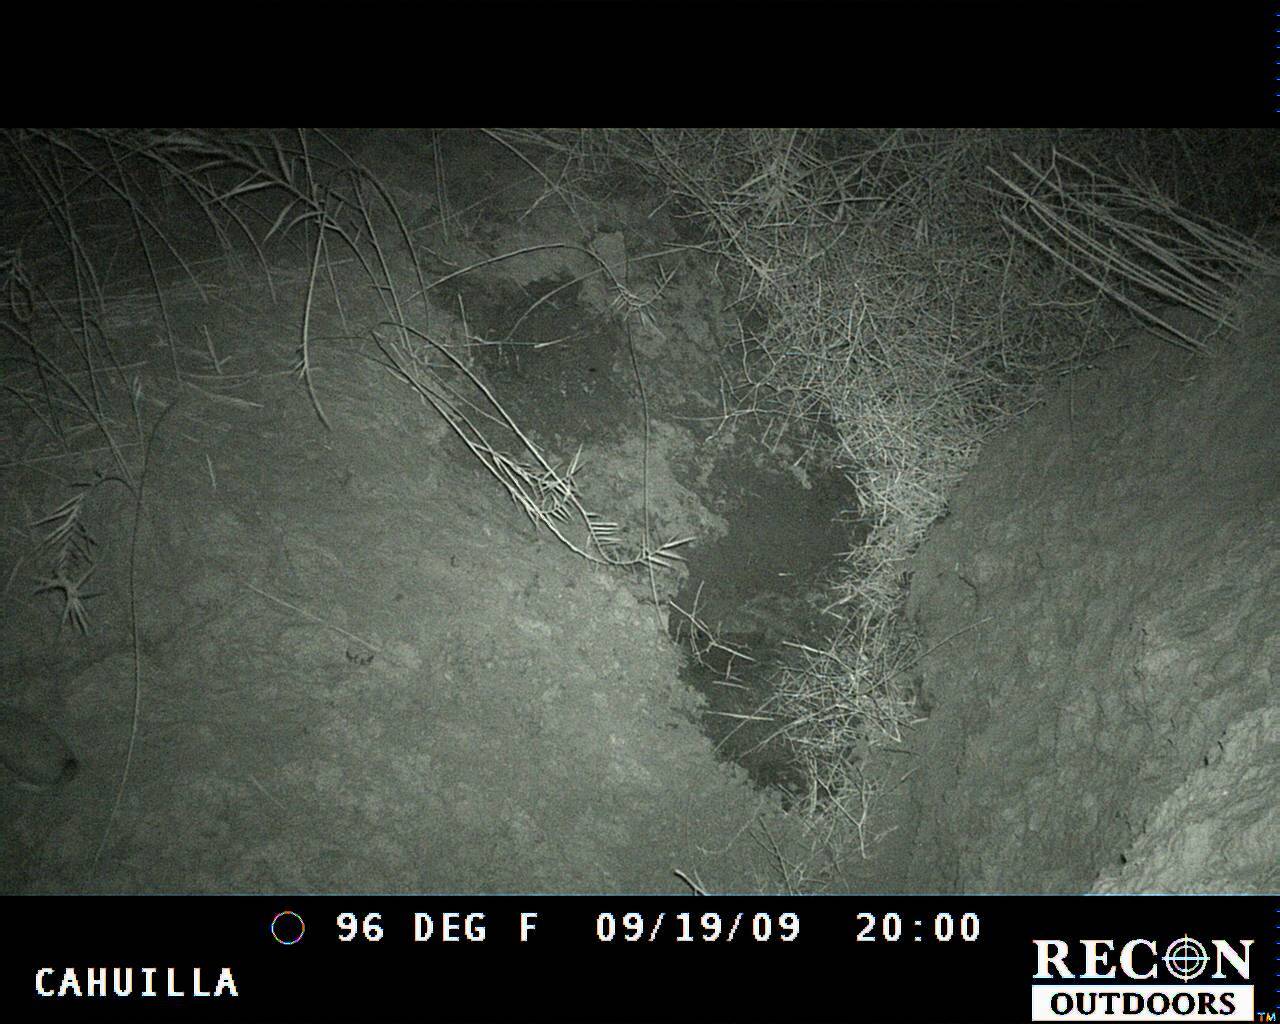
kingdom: Animalia
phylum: Chordata
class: Mammalia
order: Lagomorpha
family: Leporidae
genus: Lepus
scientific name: Lepus californicus
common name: Black-tailed jackrabbit
